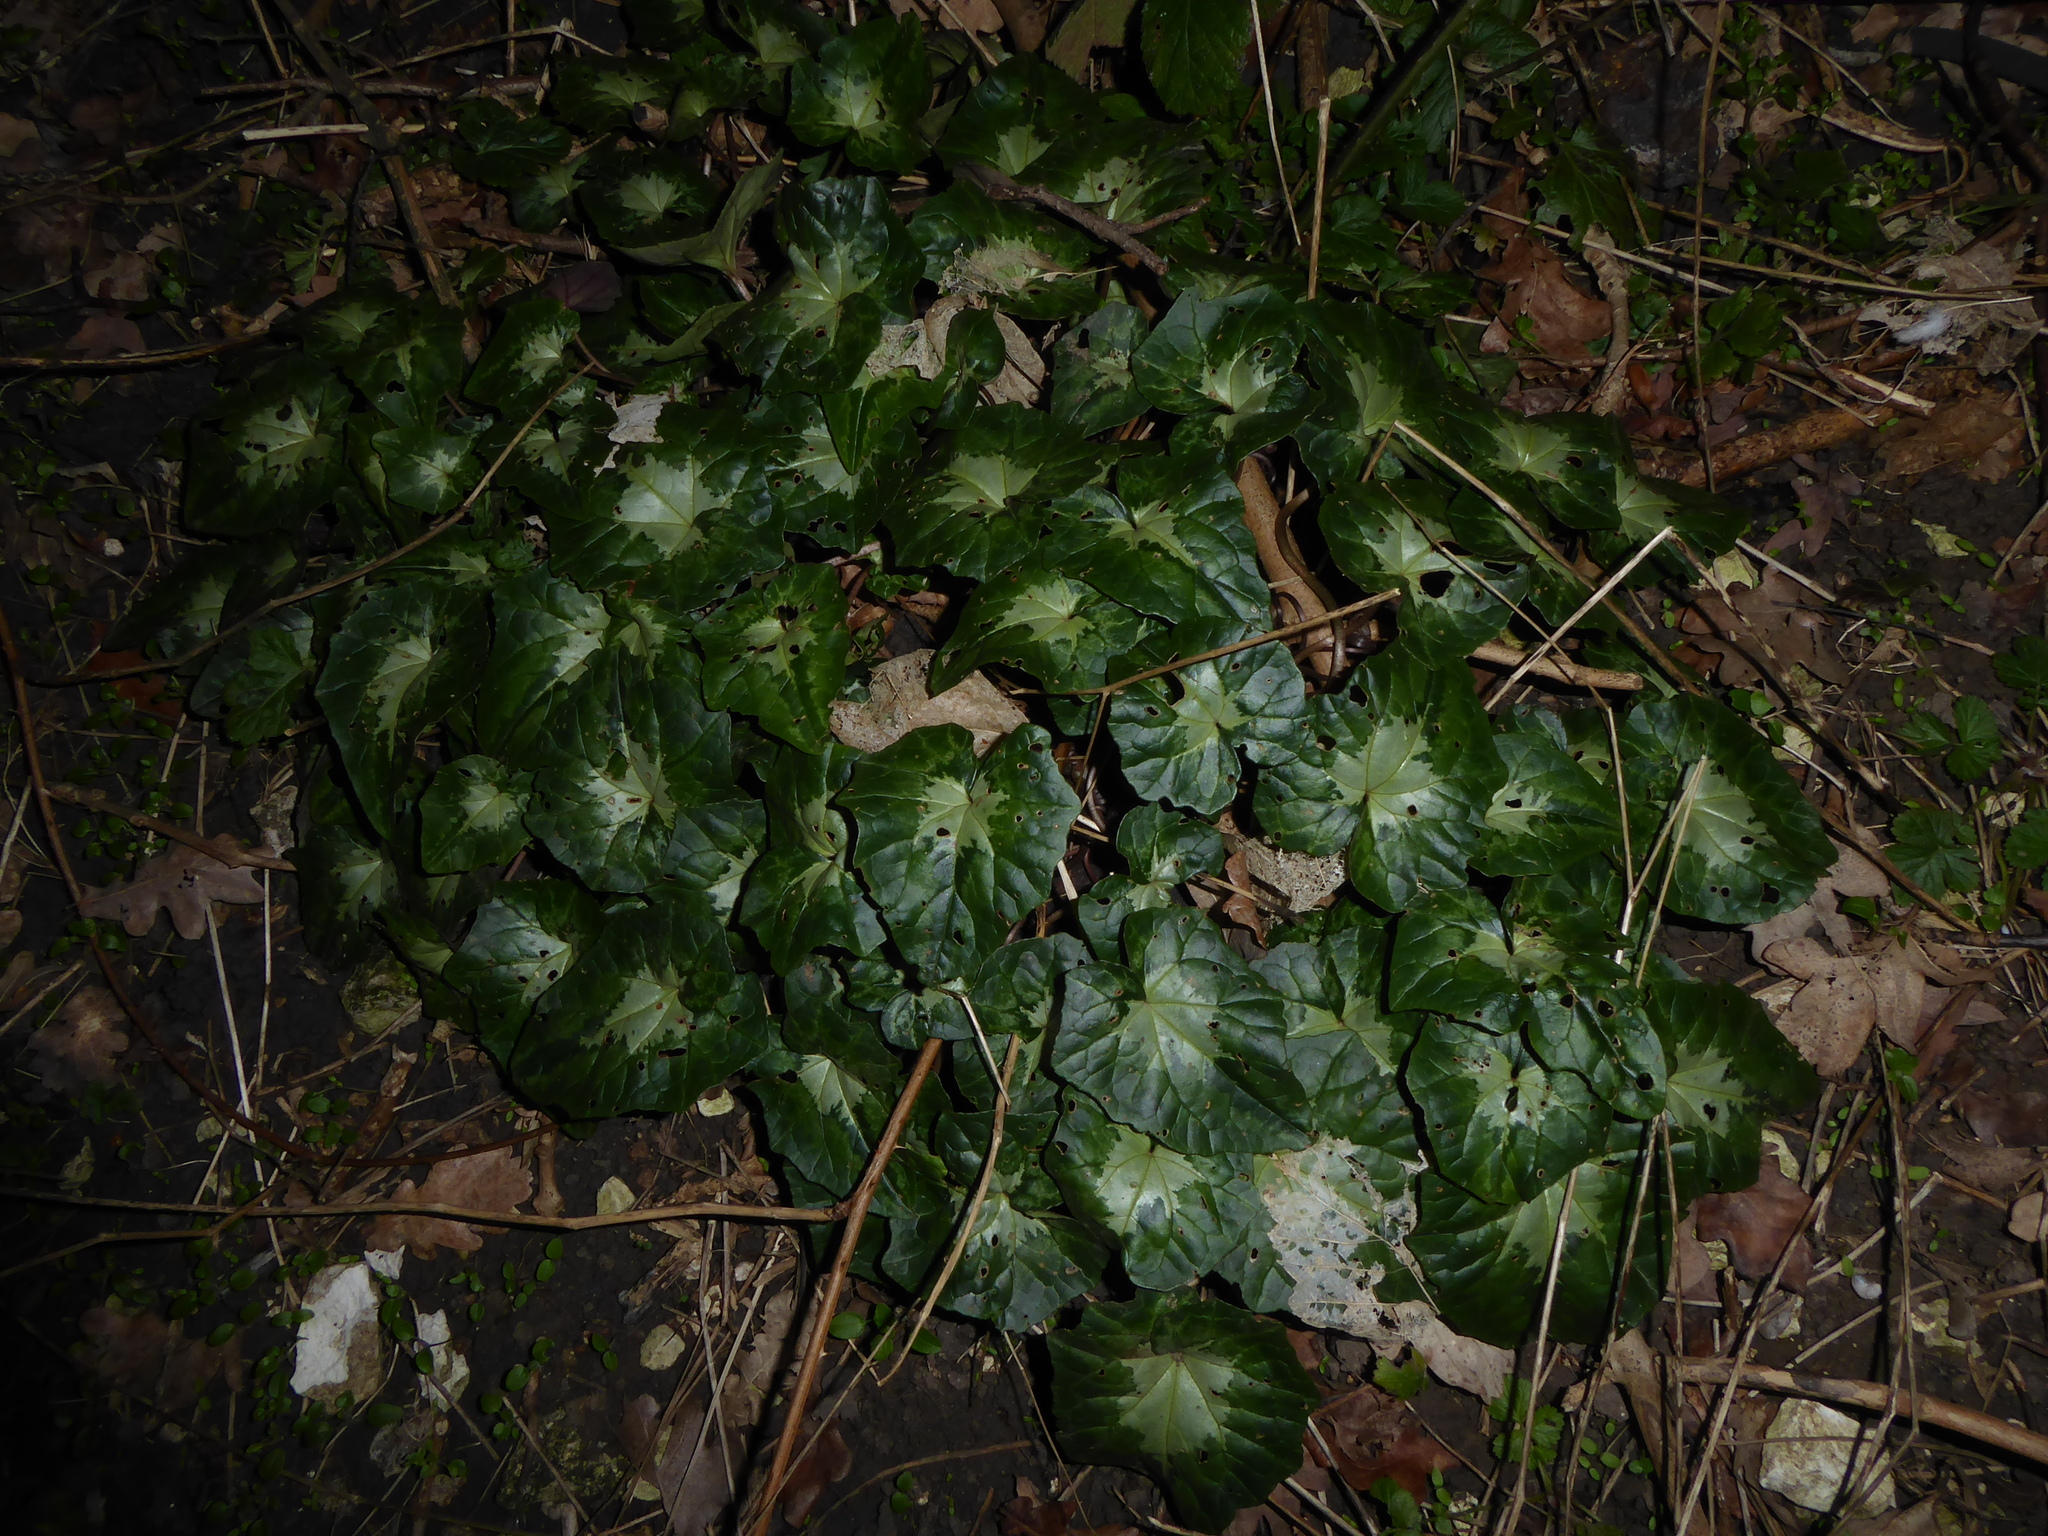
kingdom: Plantae
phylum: Tracheophyta
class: Magnoliopsida
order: Ericales
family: Primulaceae
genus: Cyclamen
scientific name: Cyclamen hederifolium
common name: Sowbread
